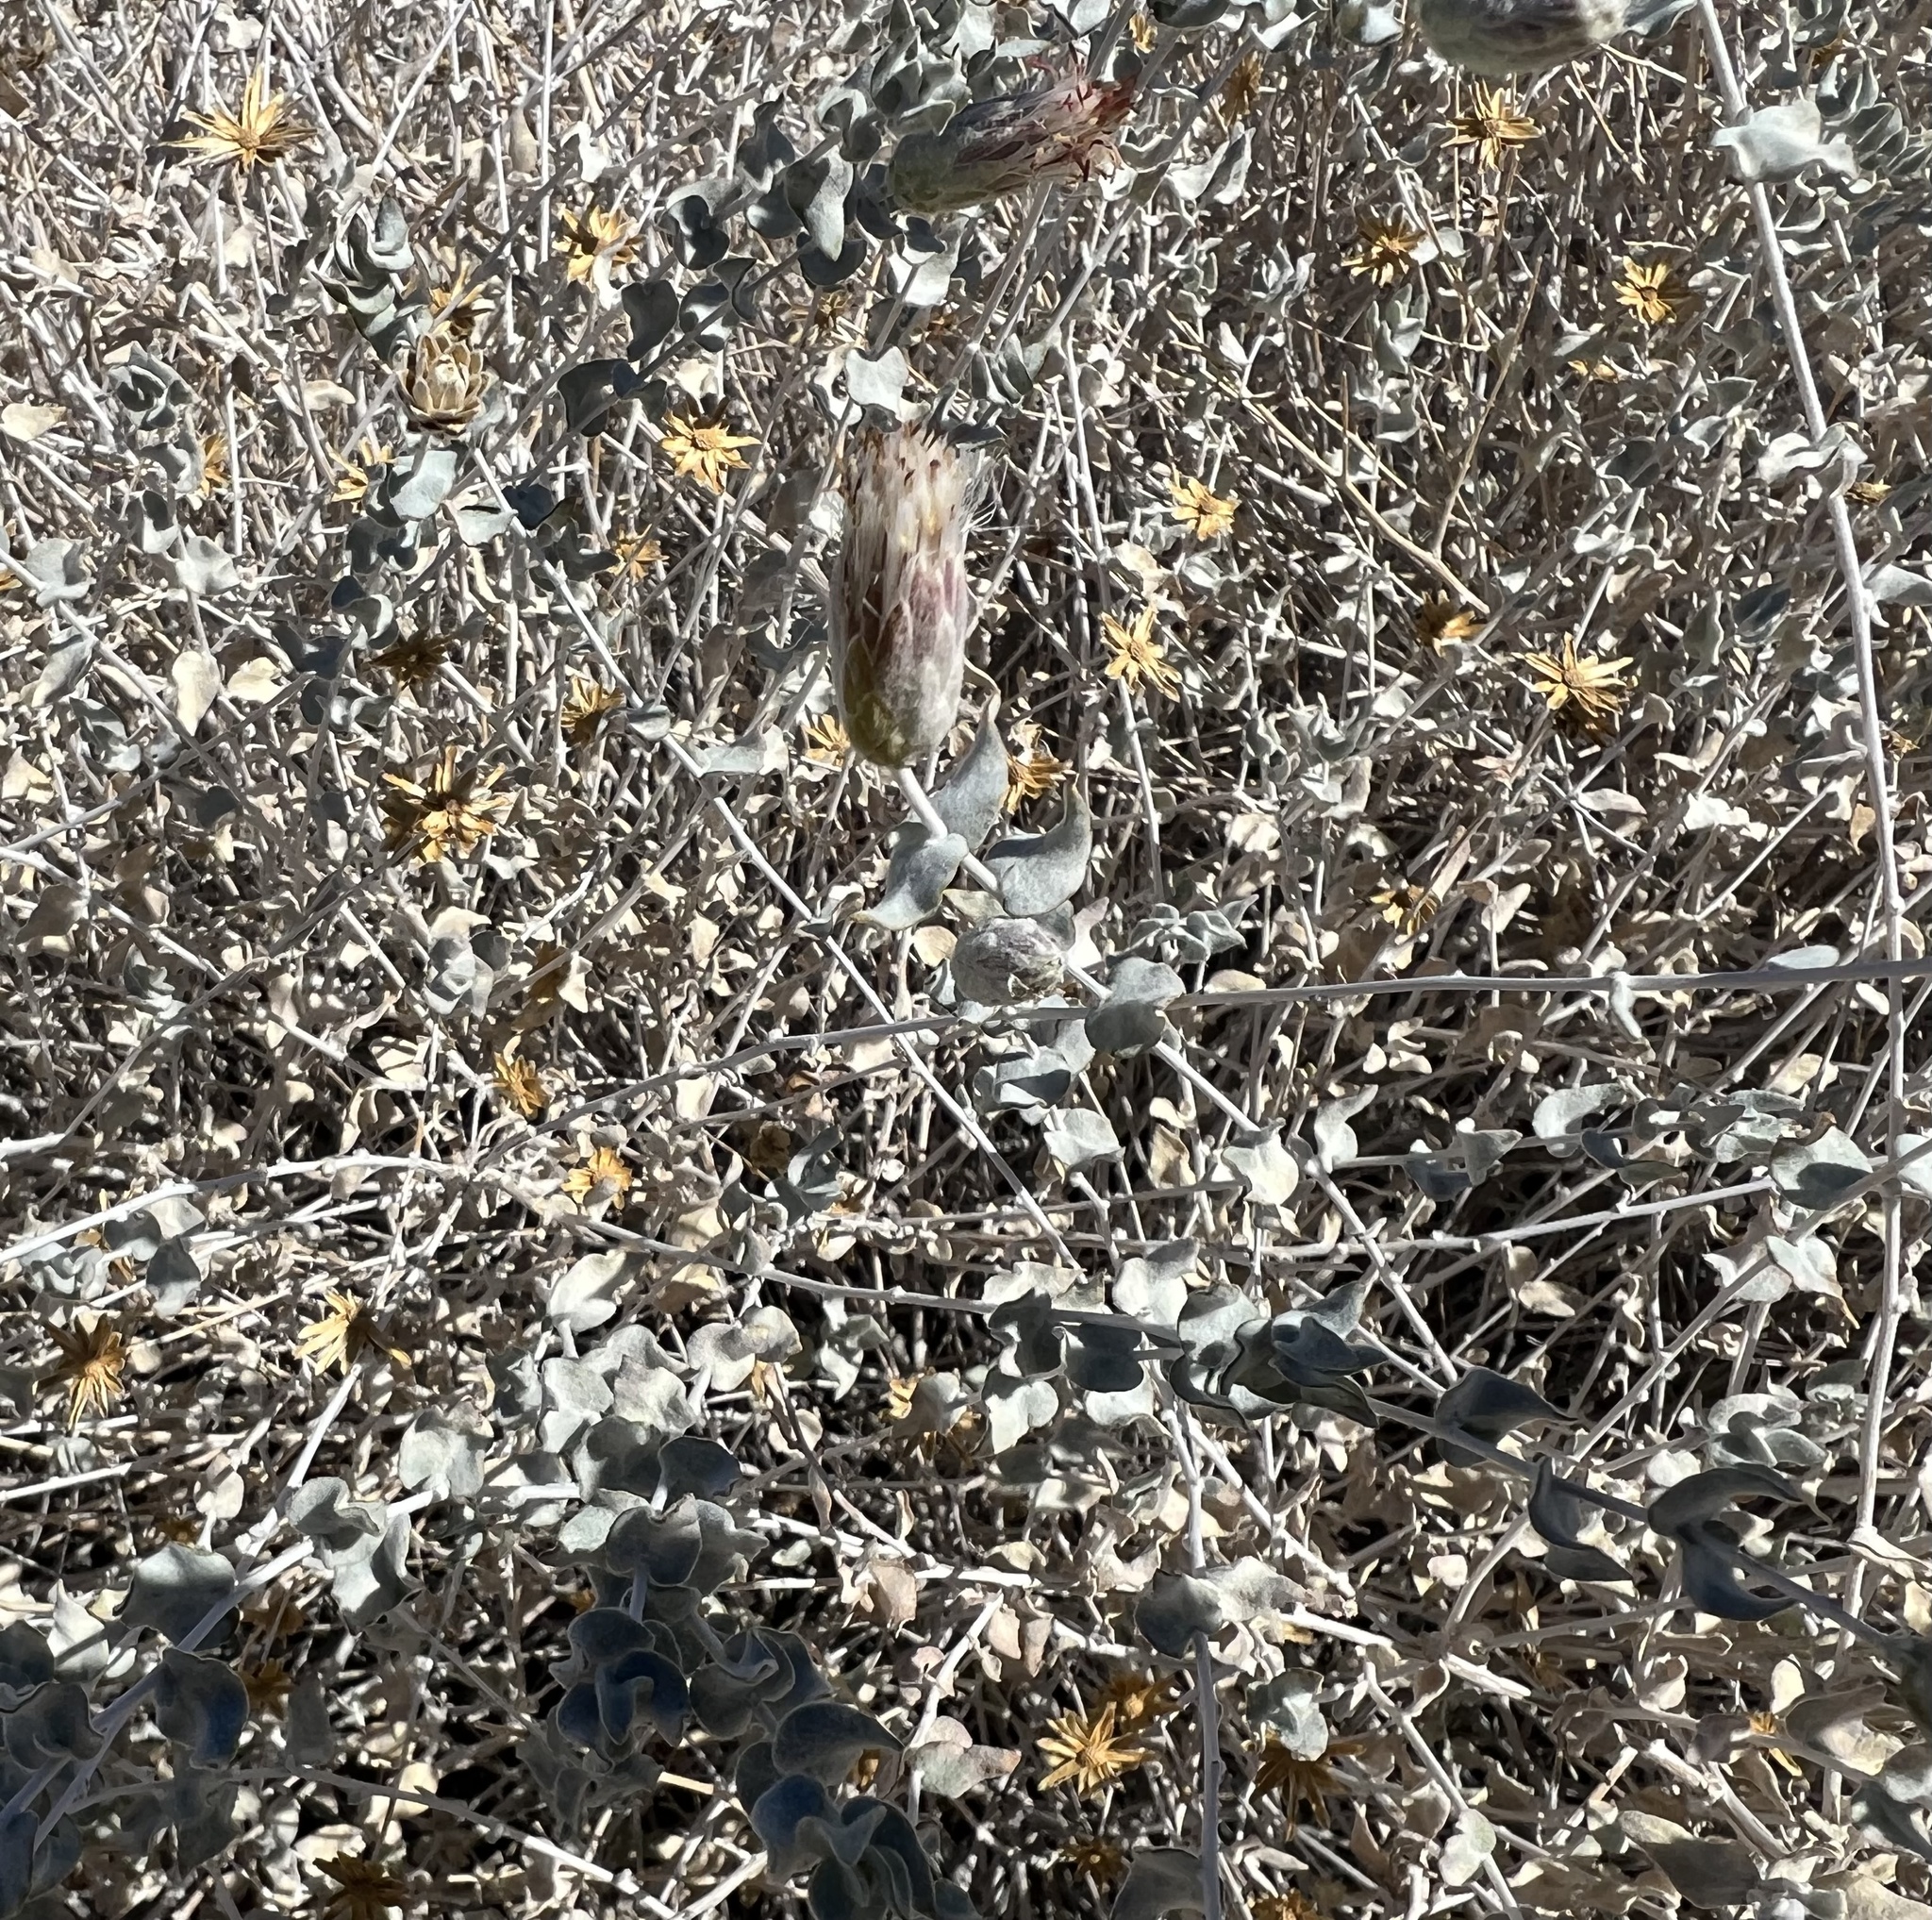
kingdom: Plantae
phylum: Tracheophyta
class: Magnoliopsida
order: Asterales
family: Asteraceae
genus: Brickellia
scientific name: Brickellia incana
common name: Woolly brickelbush
